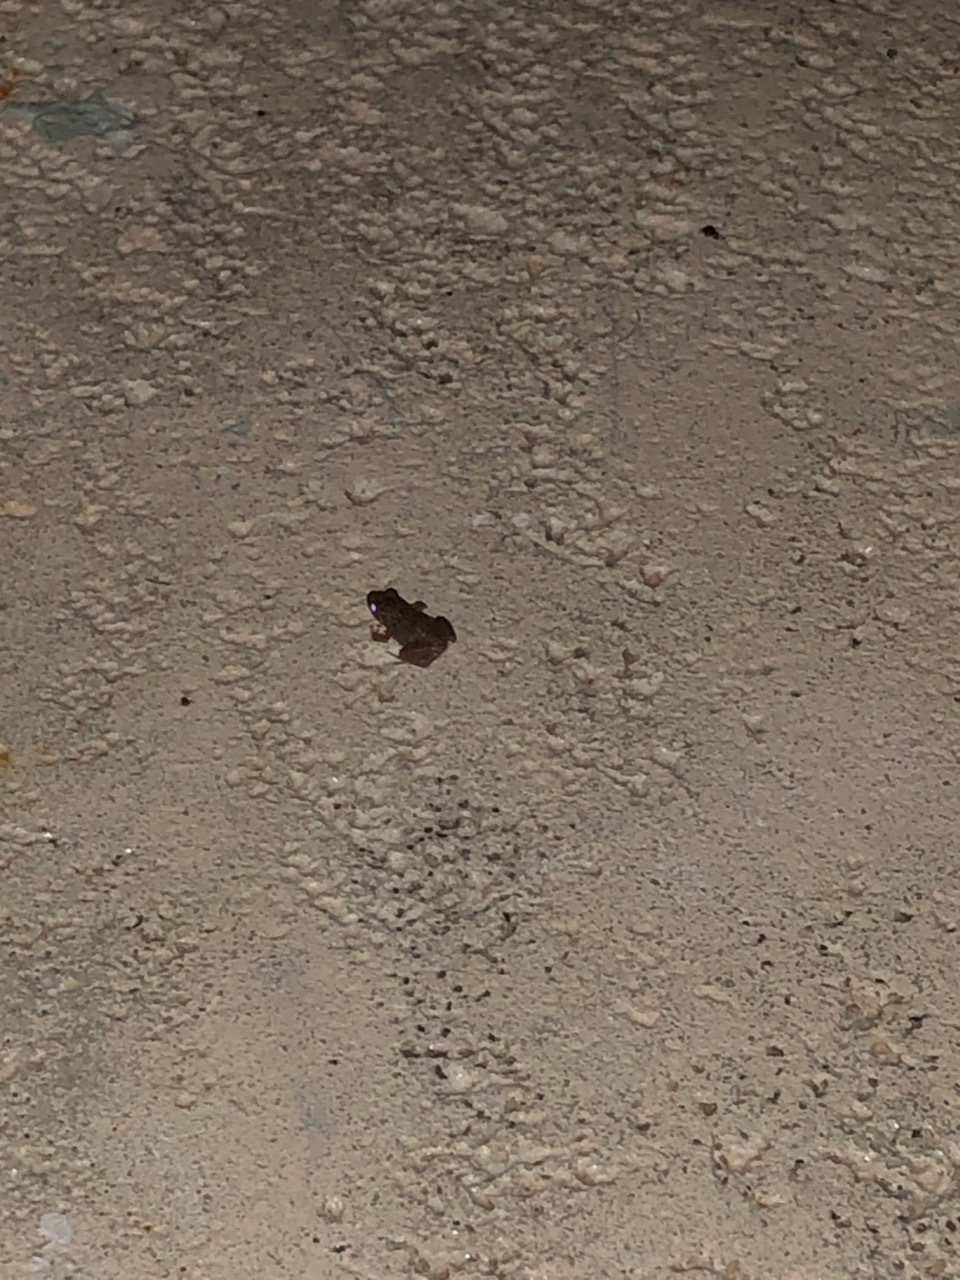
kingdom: Animalia
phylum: Chordata
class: Amphibia
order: Anura
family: Eleutherodactylidae
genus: Eleutherodactylus
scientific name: Eleutherodactylus planirostris
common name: Greenhouse frog
